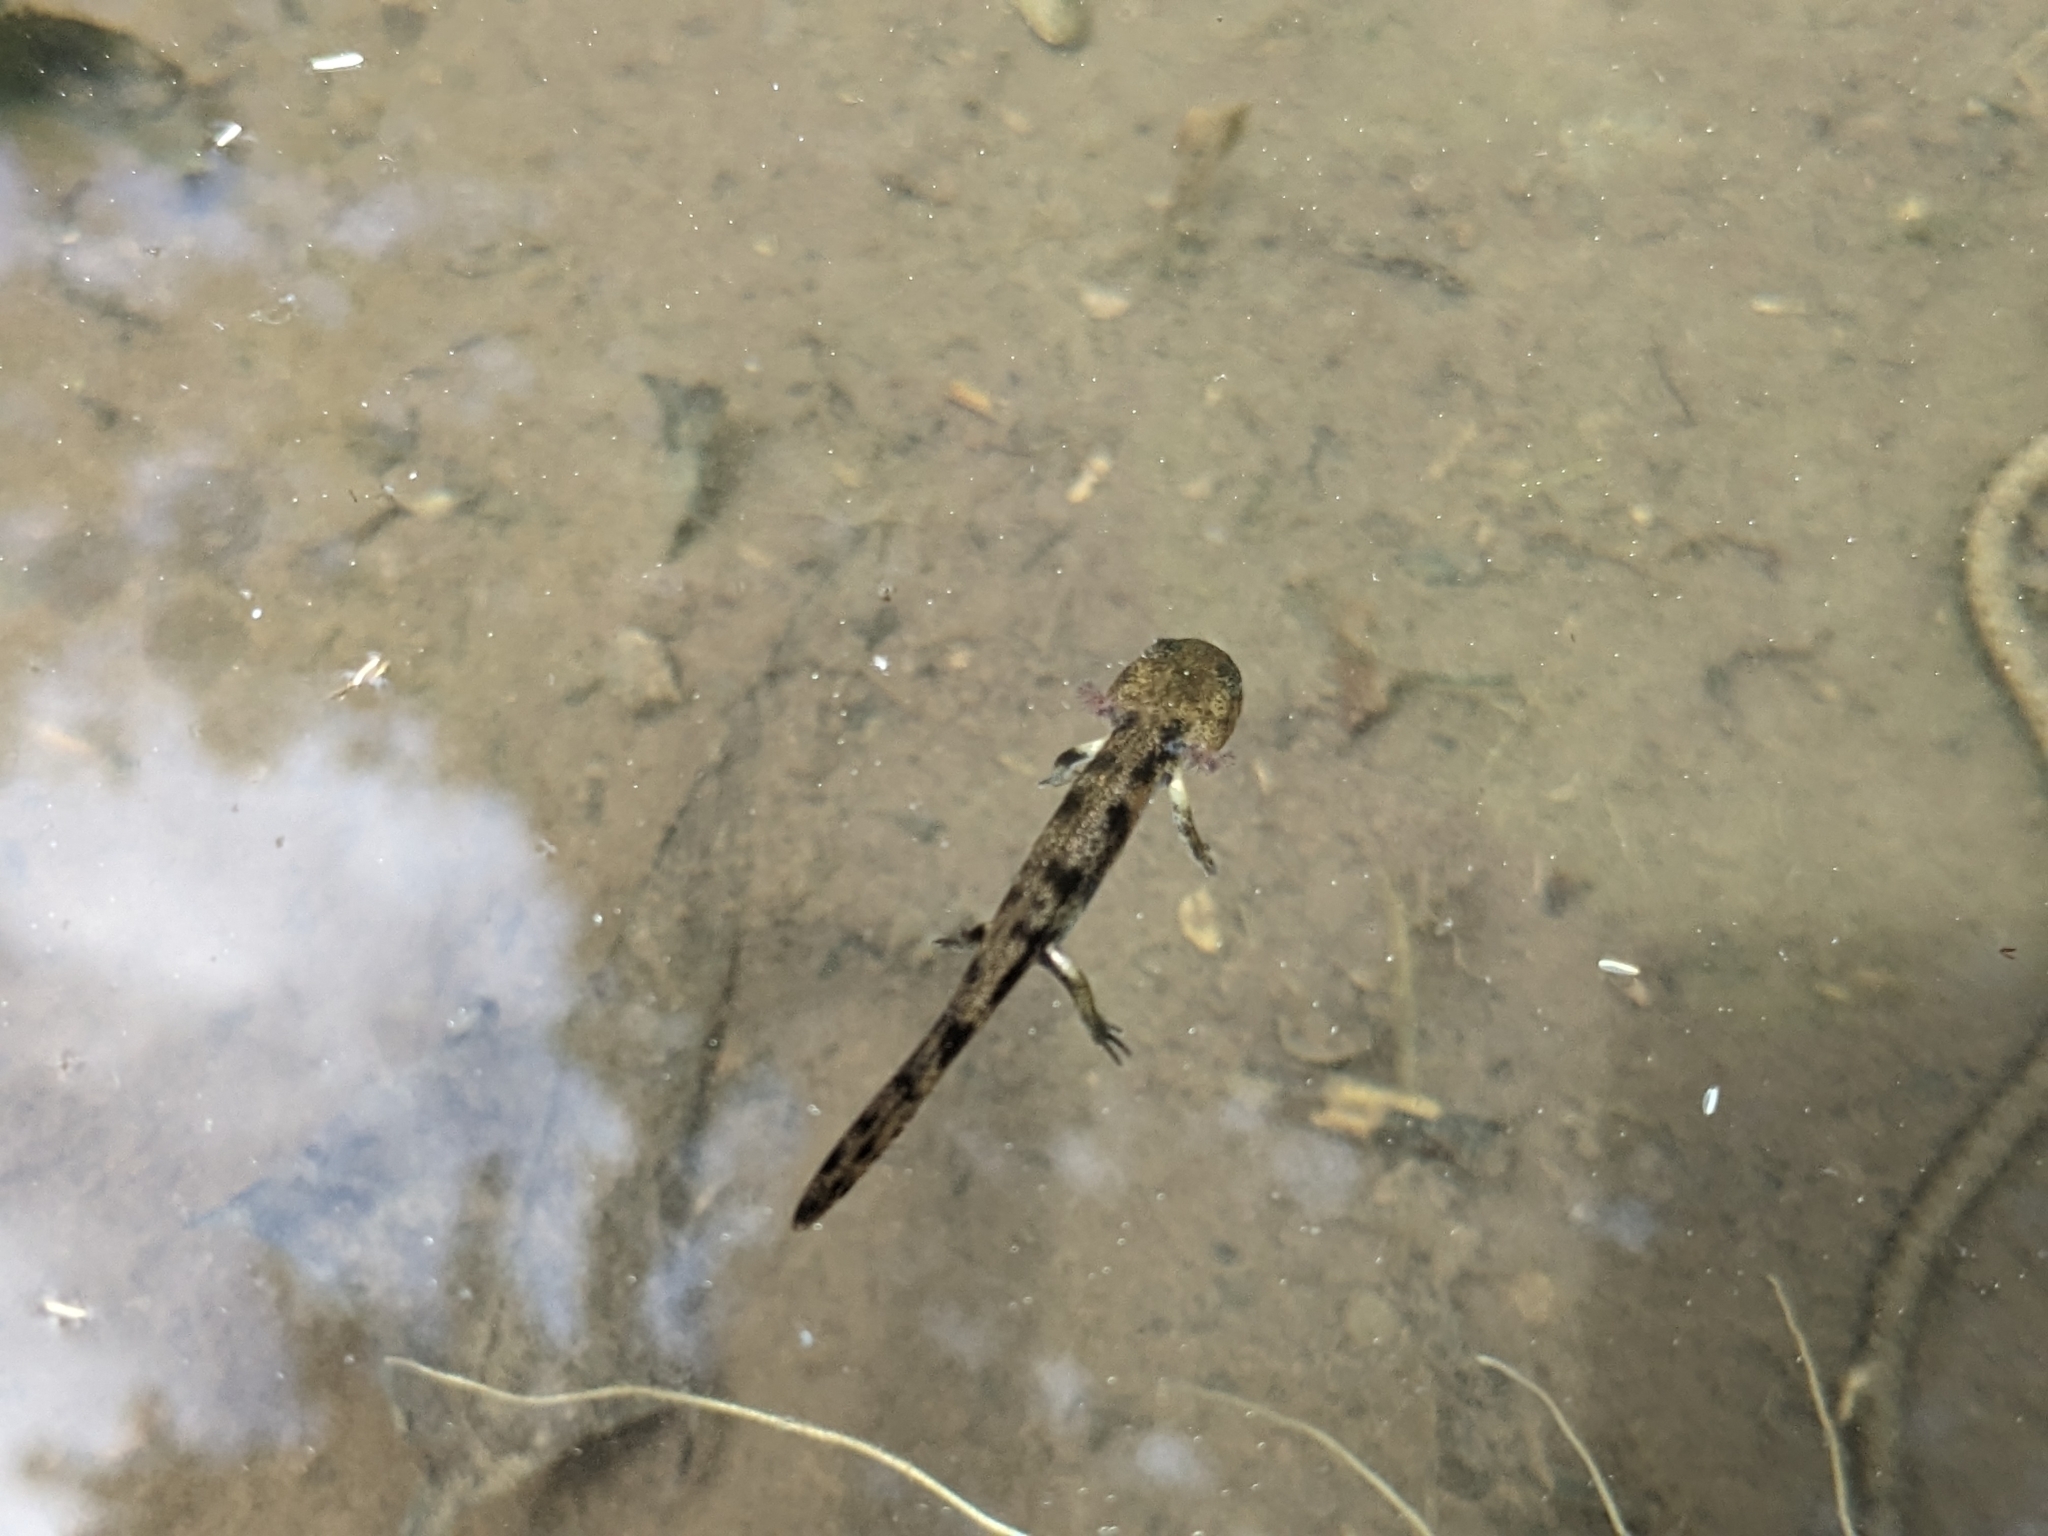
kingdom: Animalia
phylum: Chordata
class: Amphibia
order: Caudata
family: Salamandridae
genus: Salamandra
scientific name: Salamandra salamandra
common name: Fire salamander
